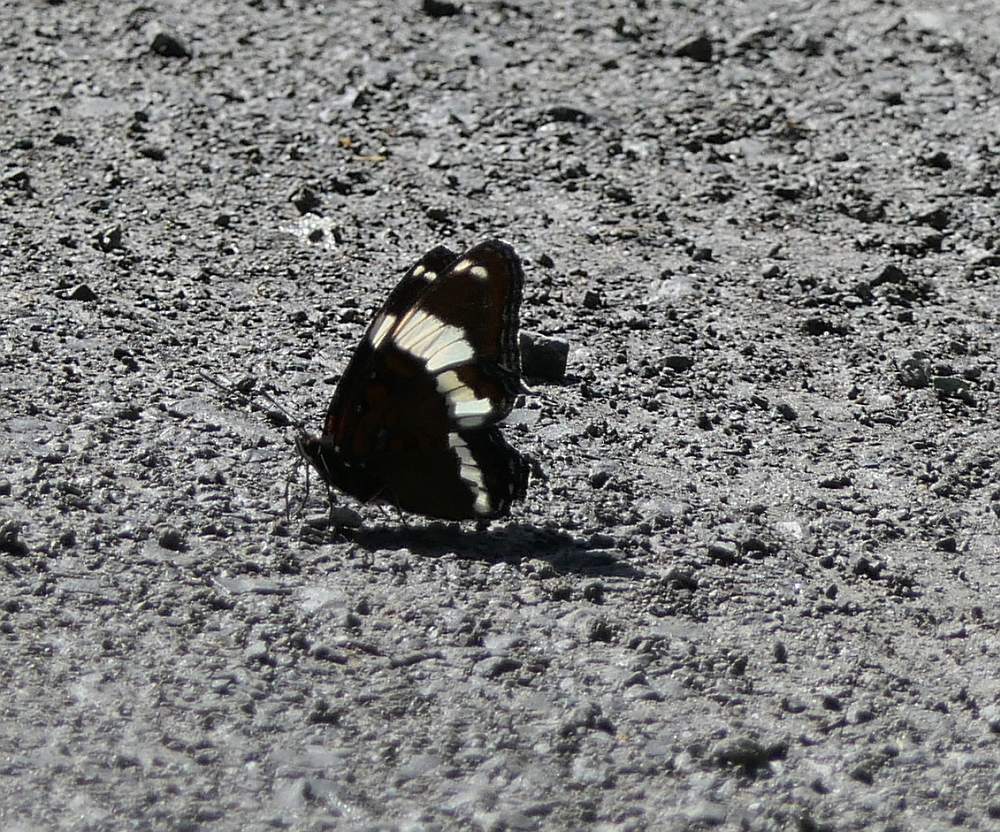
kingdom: Animalia
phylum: Arthropoda
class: Insecta
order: Lepidoptera
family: Nymphalidae
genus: Limenitis
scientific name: Limenitis arthemis
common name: Red-spotted admiral
